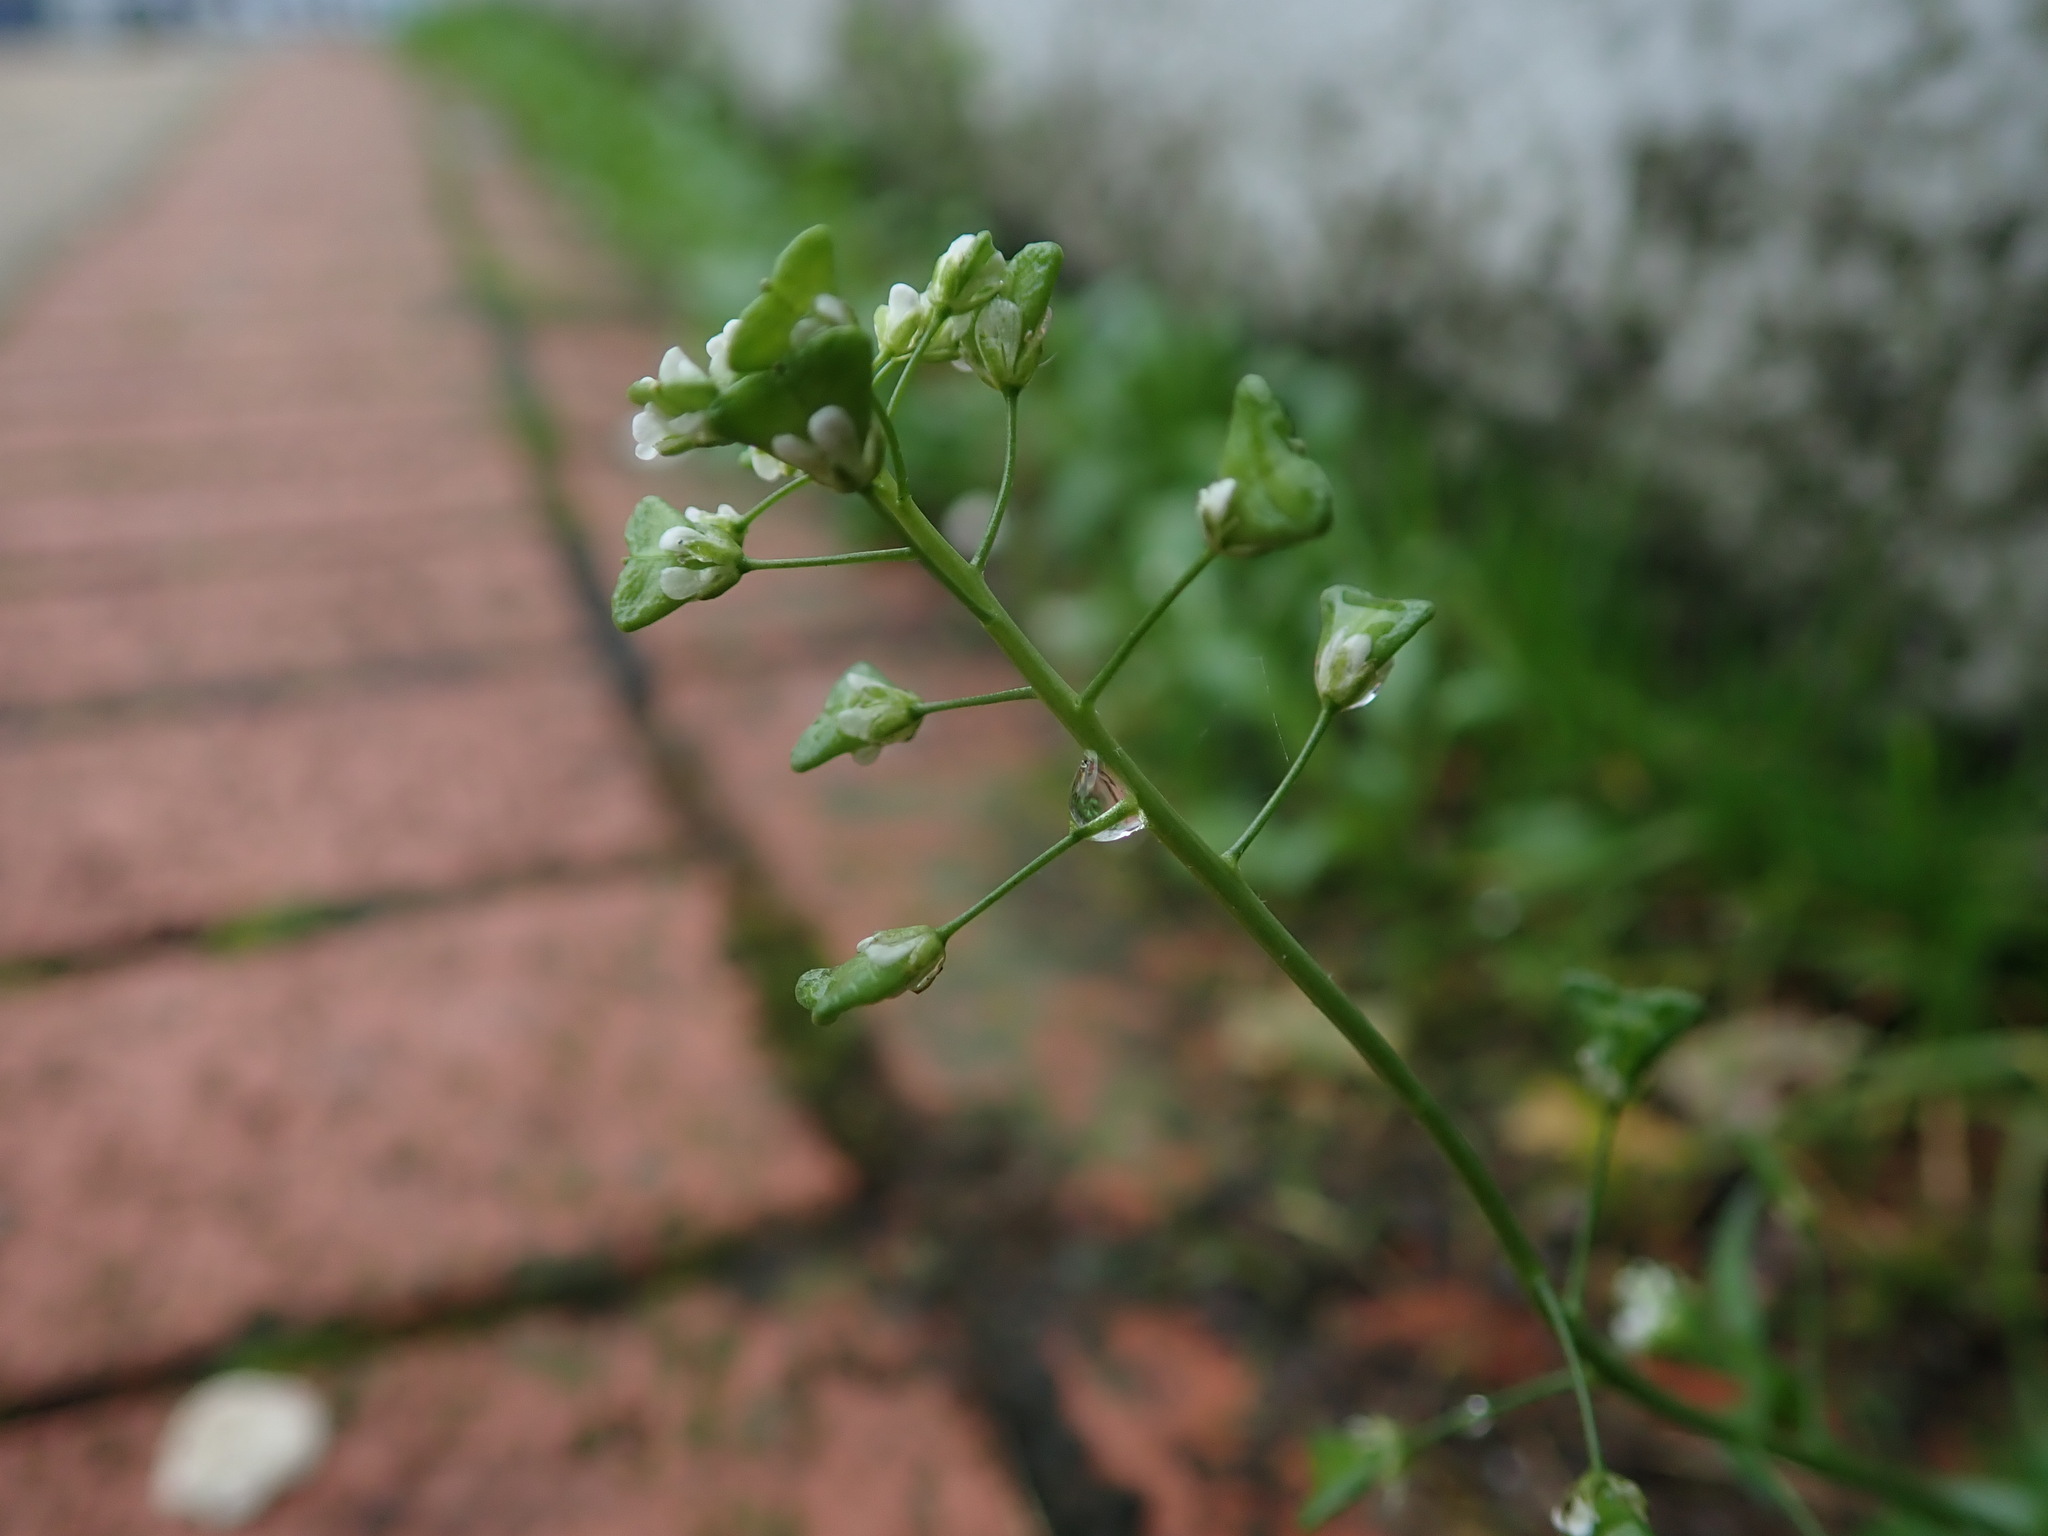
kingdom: Plantae
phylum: Tracheophyta
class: Magnoliopsida
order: Brassicales
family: Brassicaceae
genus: Capsella
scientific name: Capsella bursa-pastoris
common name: Shepherd's purse
